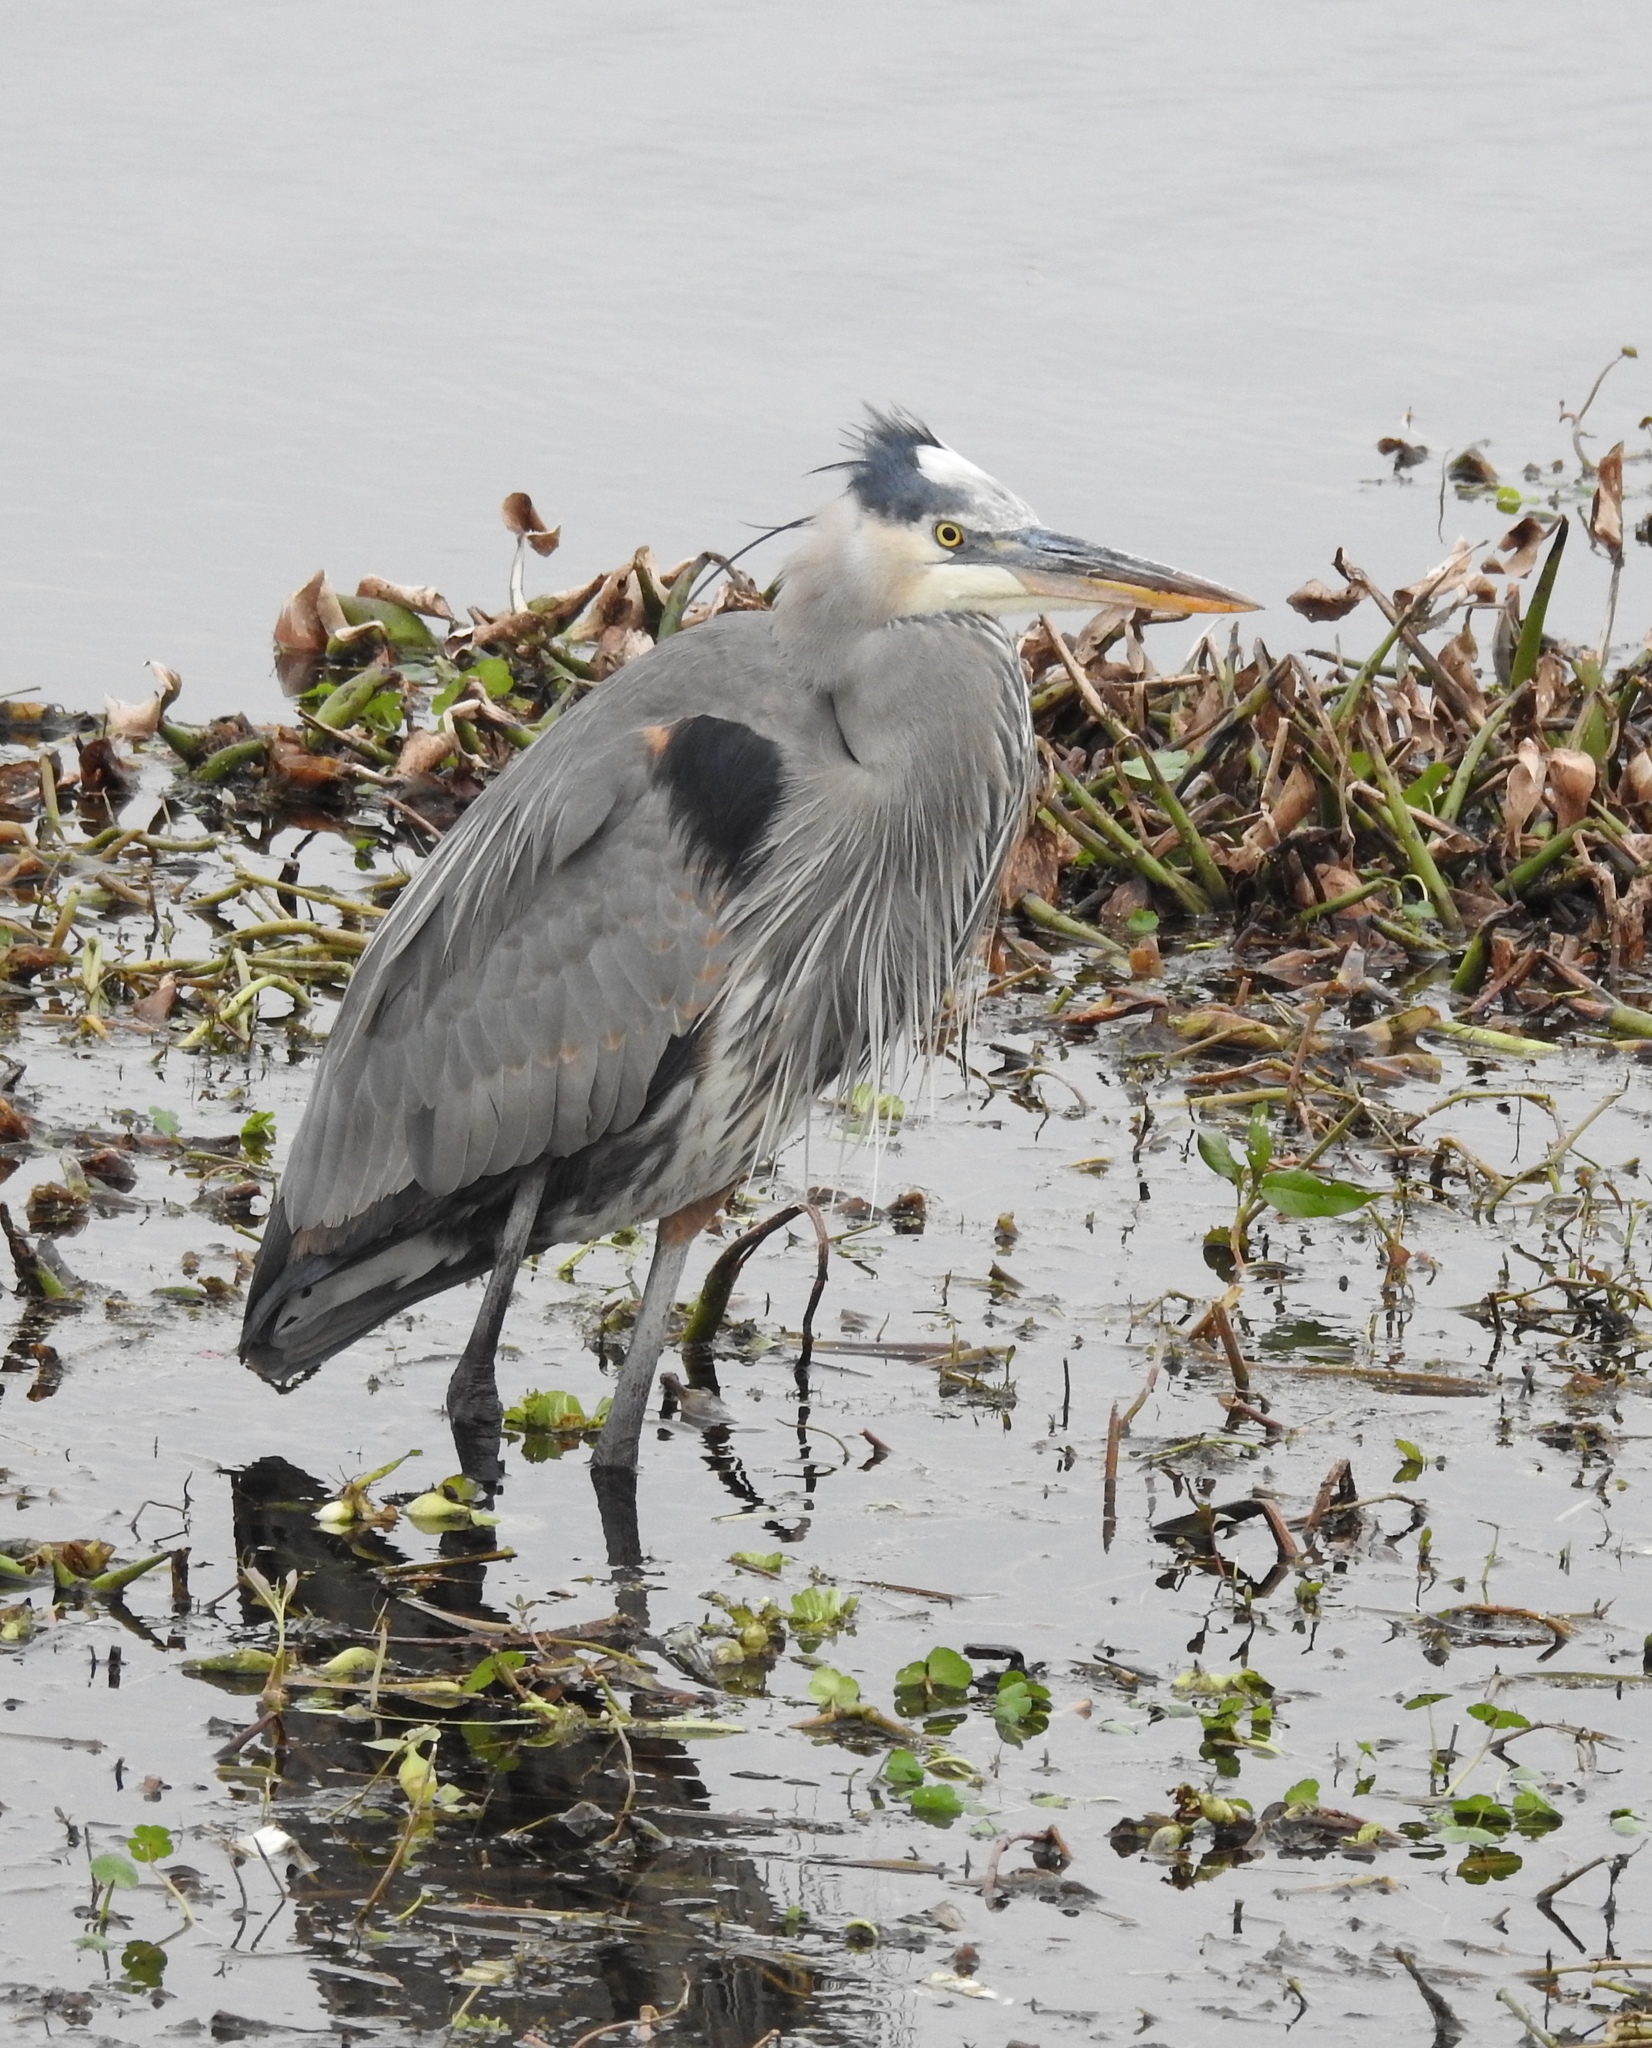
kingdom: Animalia
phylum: Chordata
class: Aves
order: Pelecaniformes
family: Ardeidae
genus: Ardea
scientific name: Ardea herodias
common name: Great blue heron
